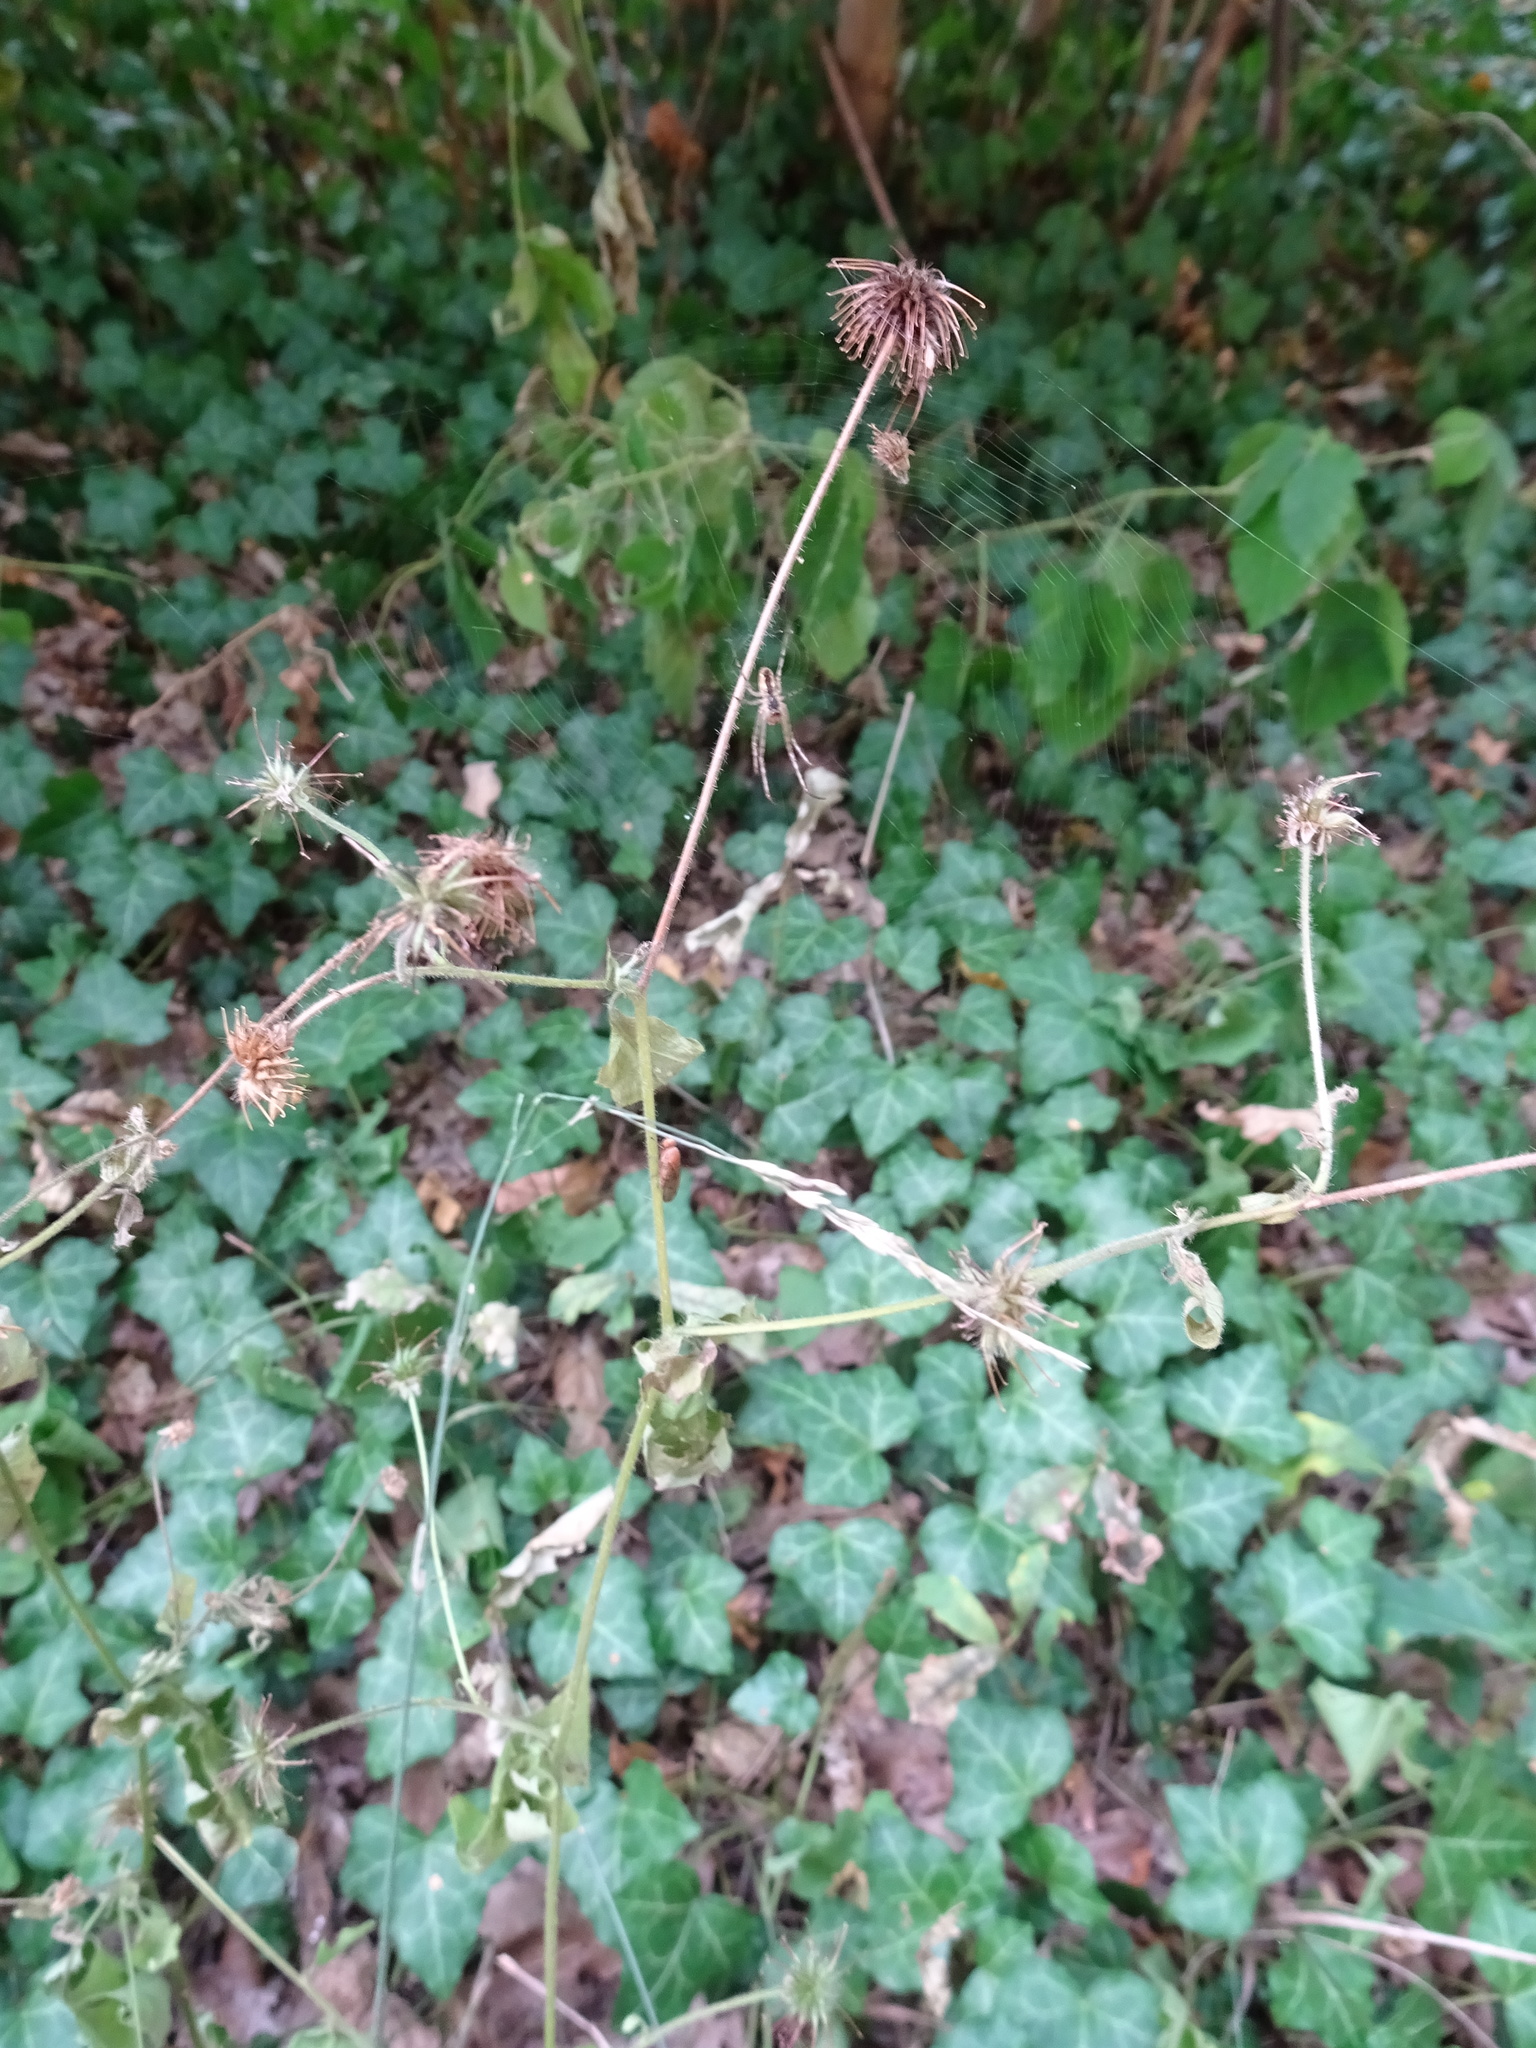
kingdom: Plantae
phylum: Tracheophyta
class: Magnoliopsida
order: Rosales
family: Rosaceae
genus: Geum
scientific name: Geum urbanum
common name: Wood avens
